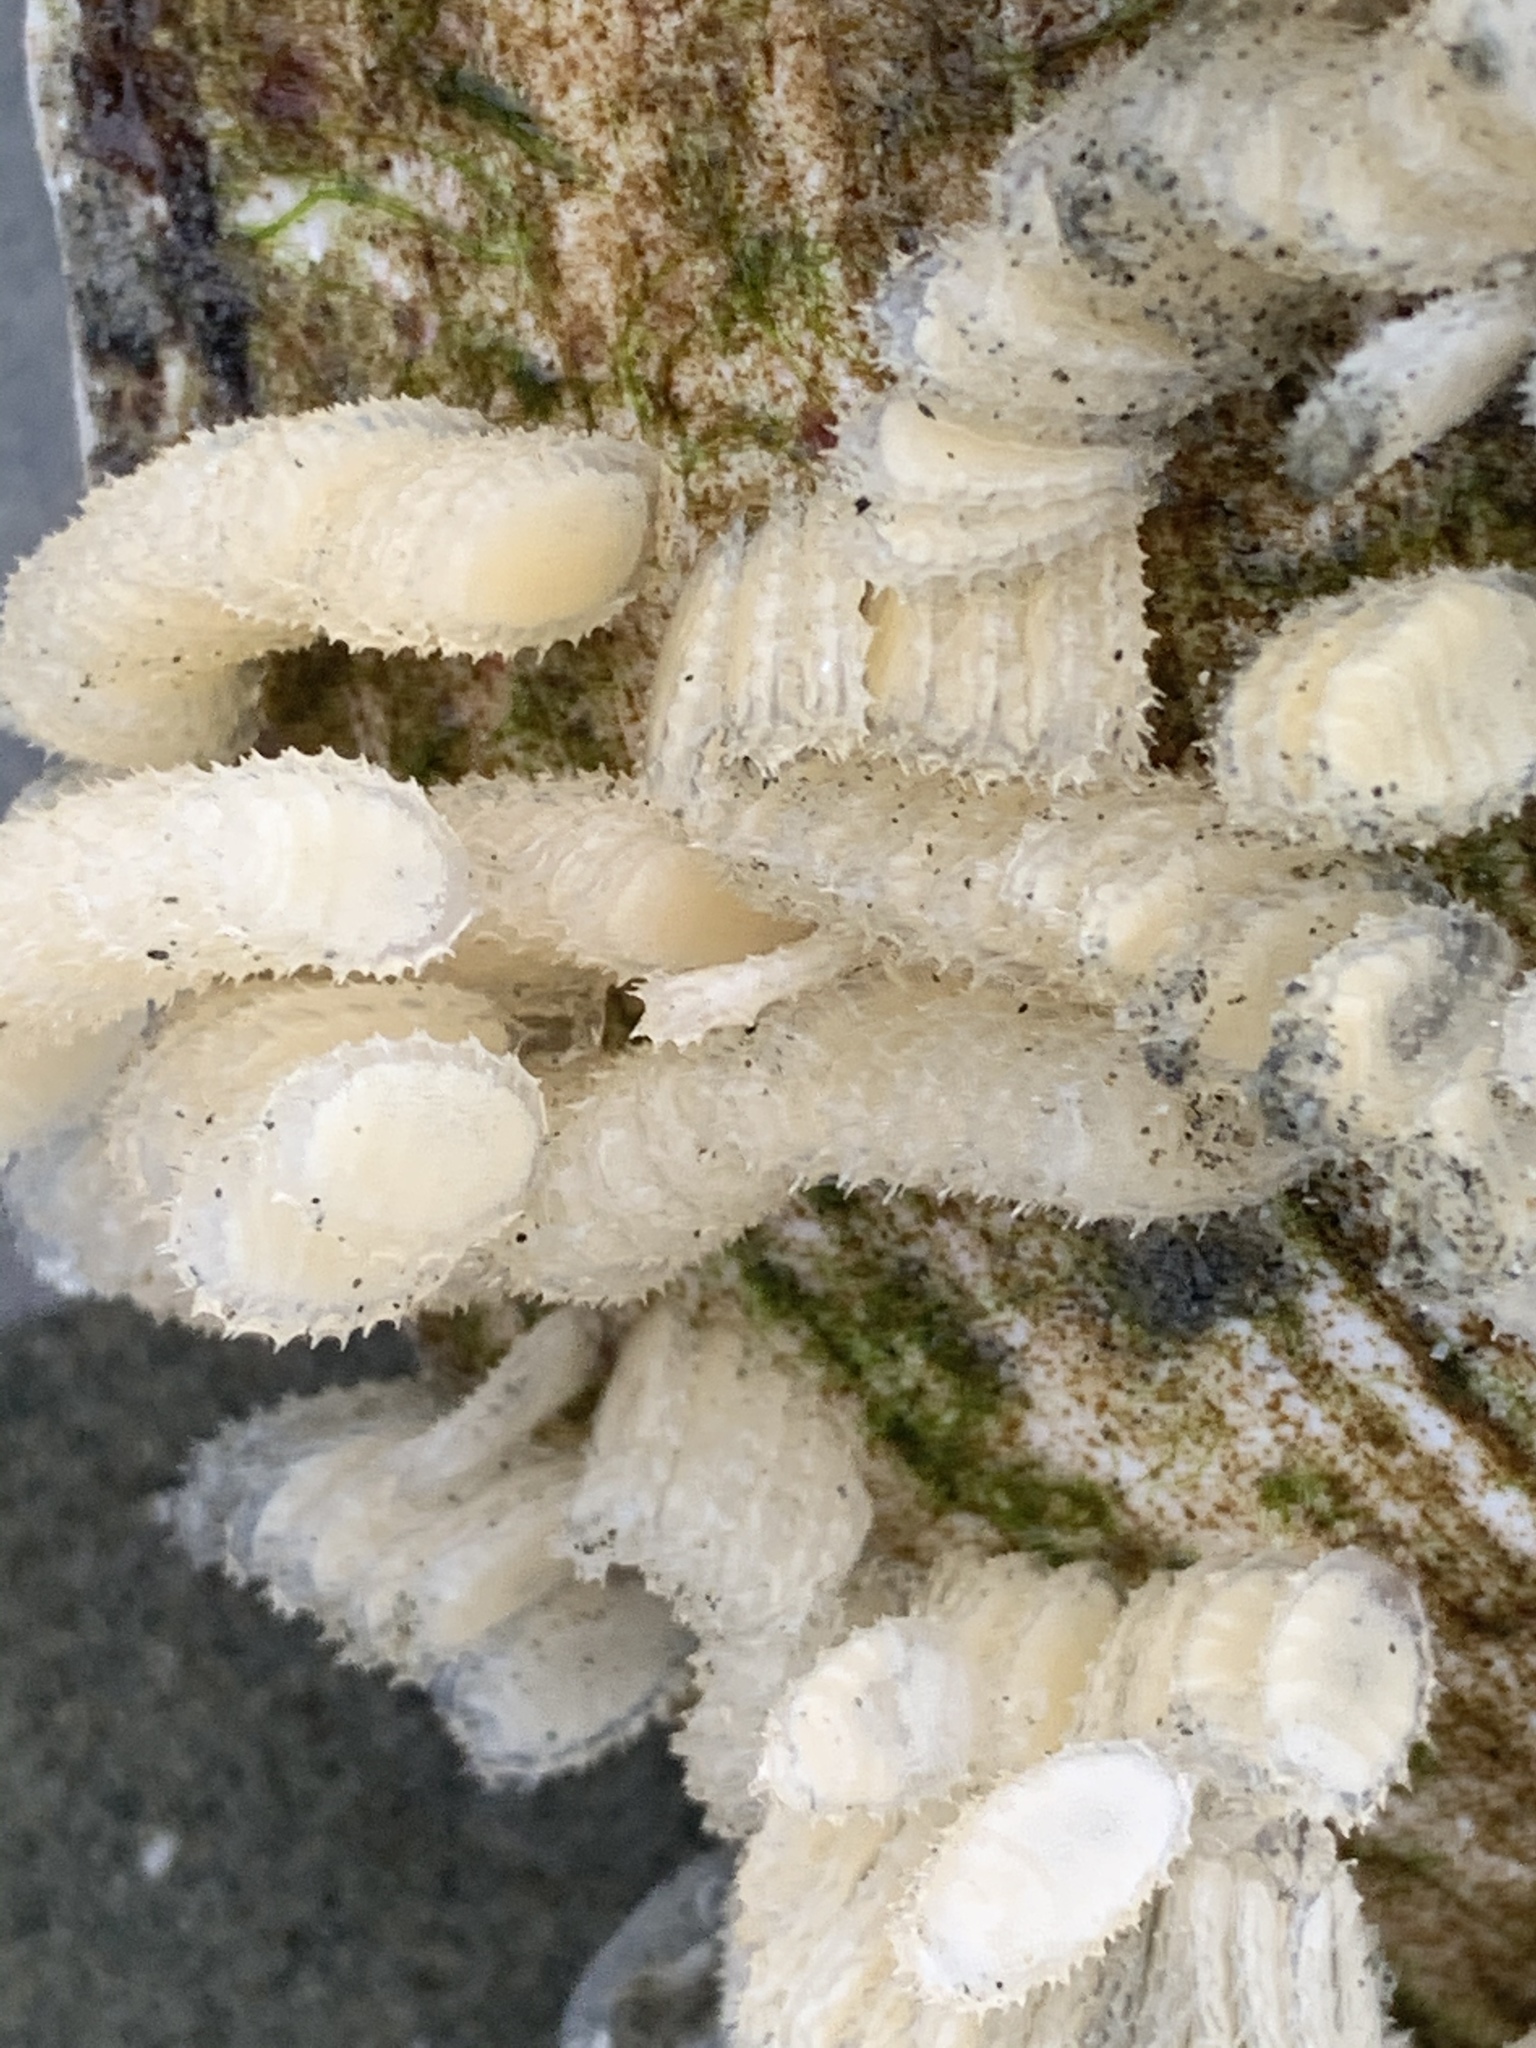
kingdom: Animalia
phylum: Mollusca
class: Gastropoda
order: Neogastropoda
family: Nassariidae
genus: Caesia
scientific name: Caesia fossata
